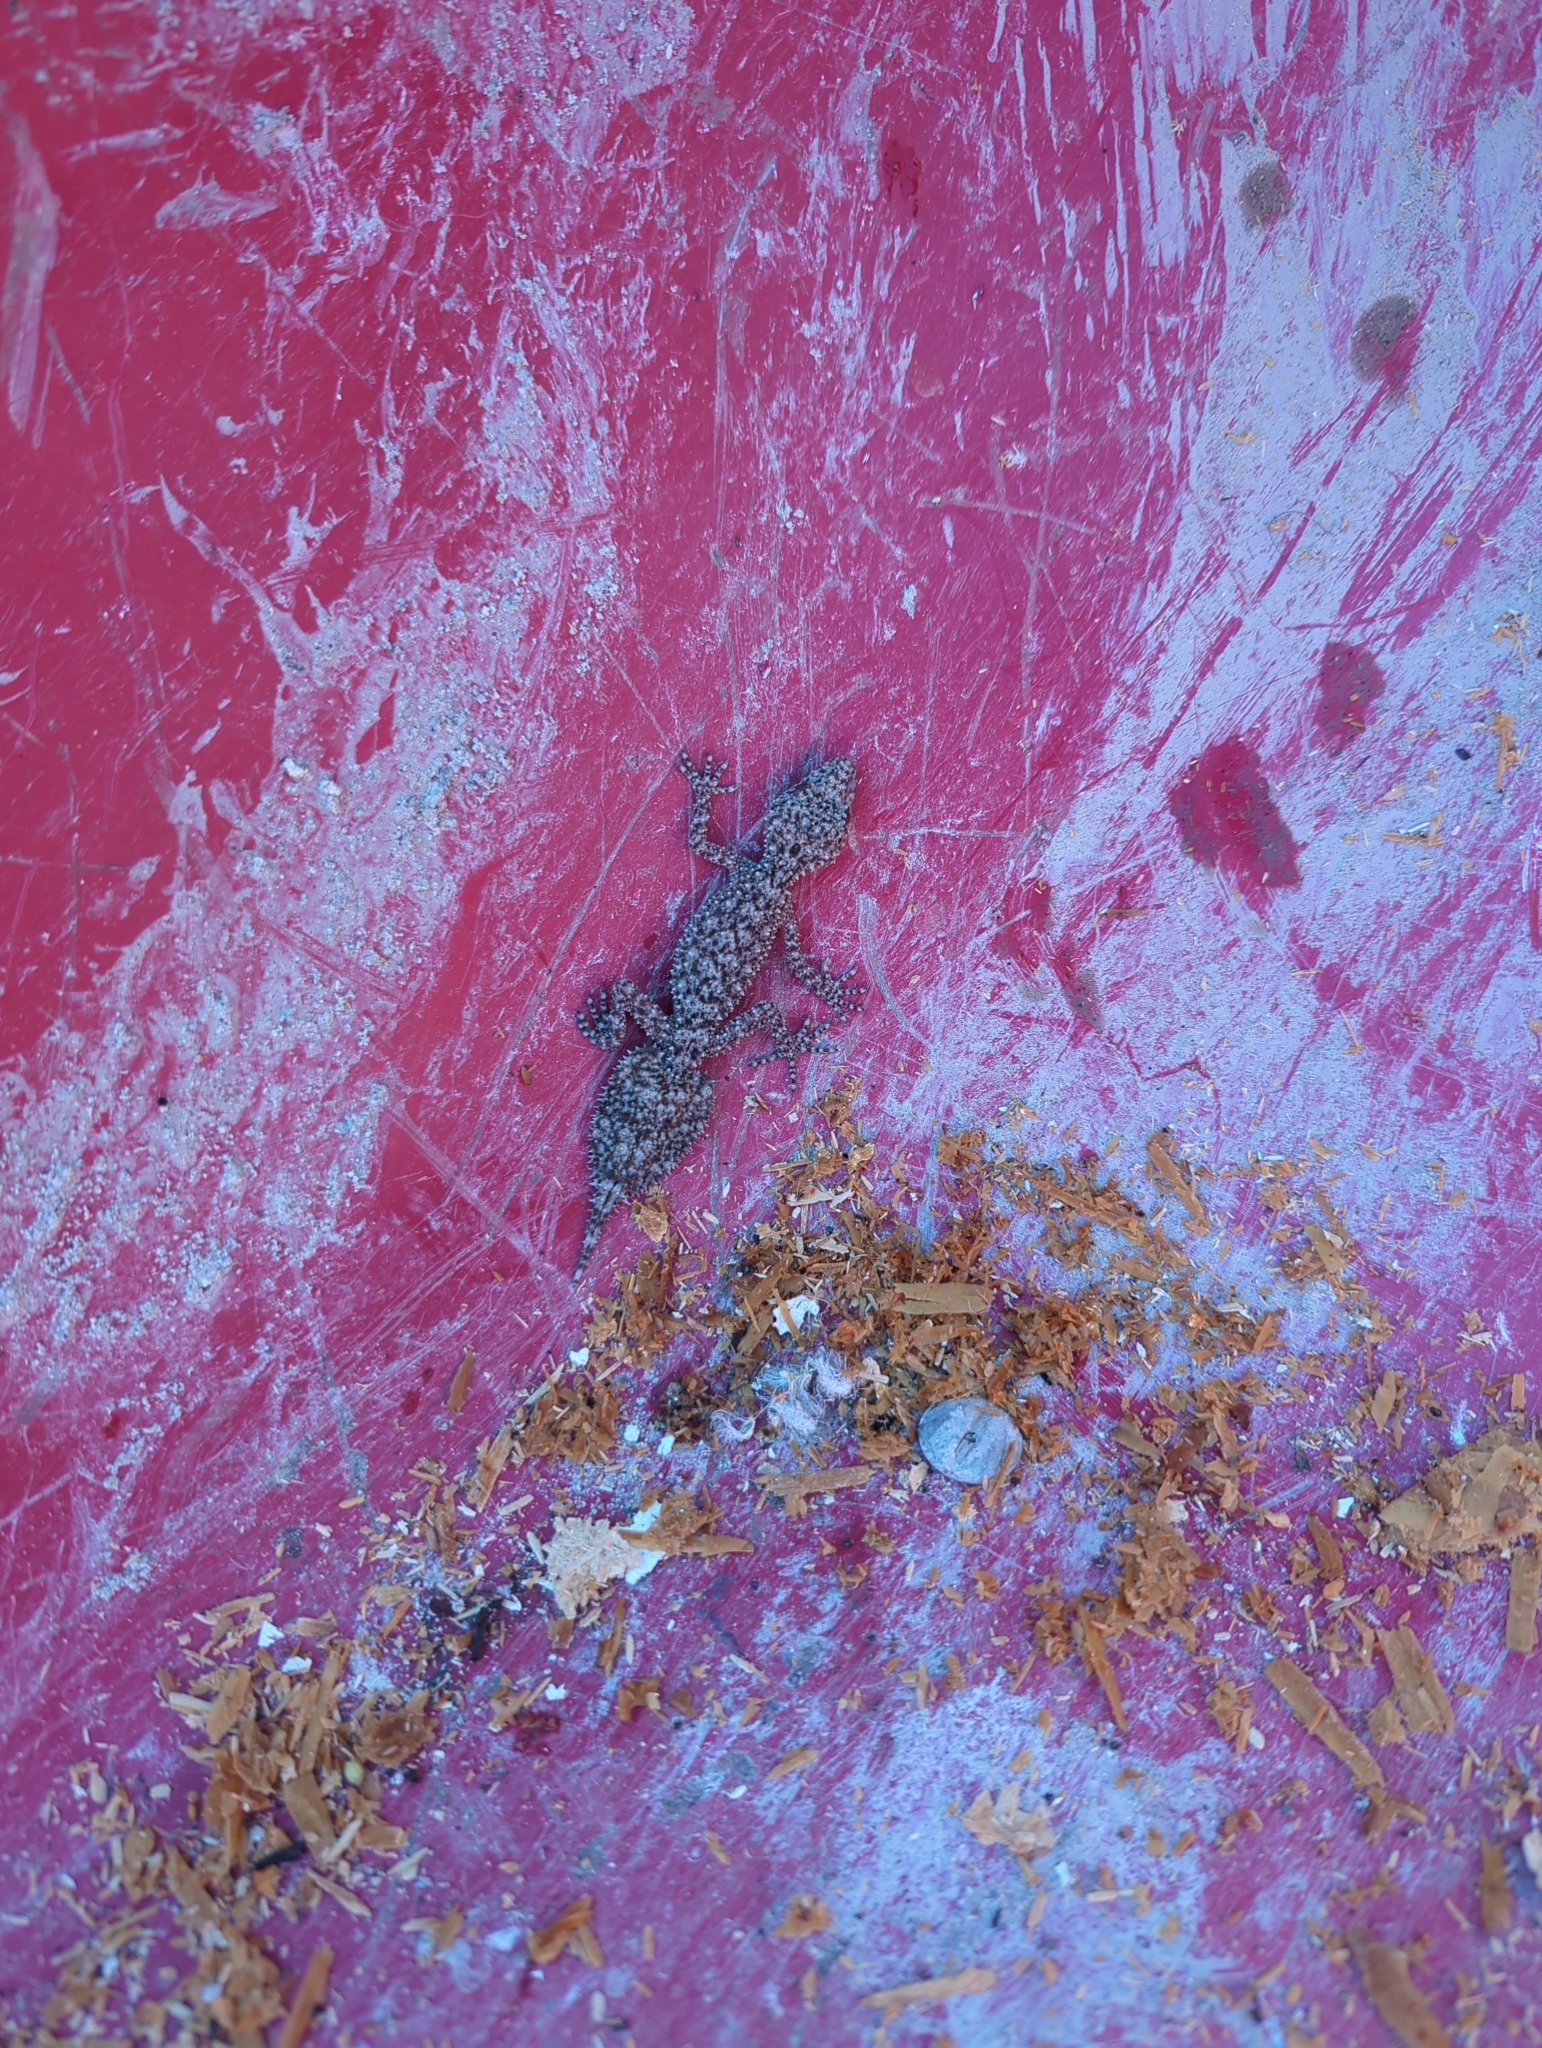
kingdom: Animalia
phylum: Chordata
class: Squamata
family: Carphodactylidae
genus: Phyllurus
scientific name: Phyllurus platurus
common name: Broad-tailed gecko
